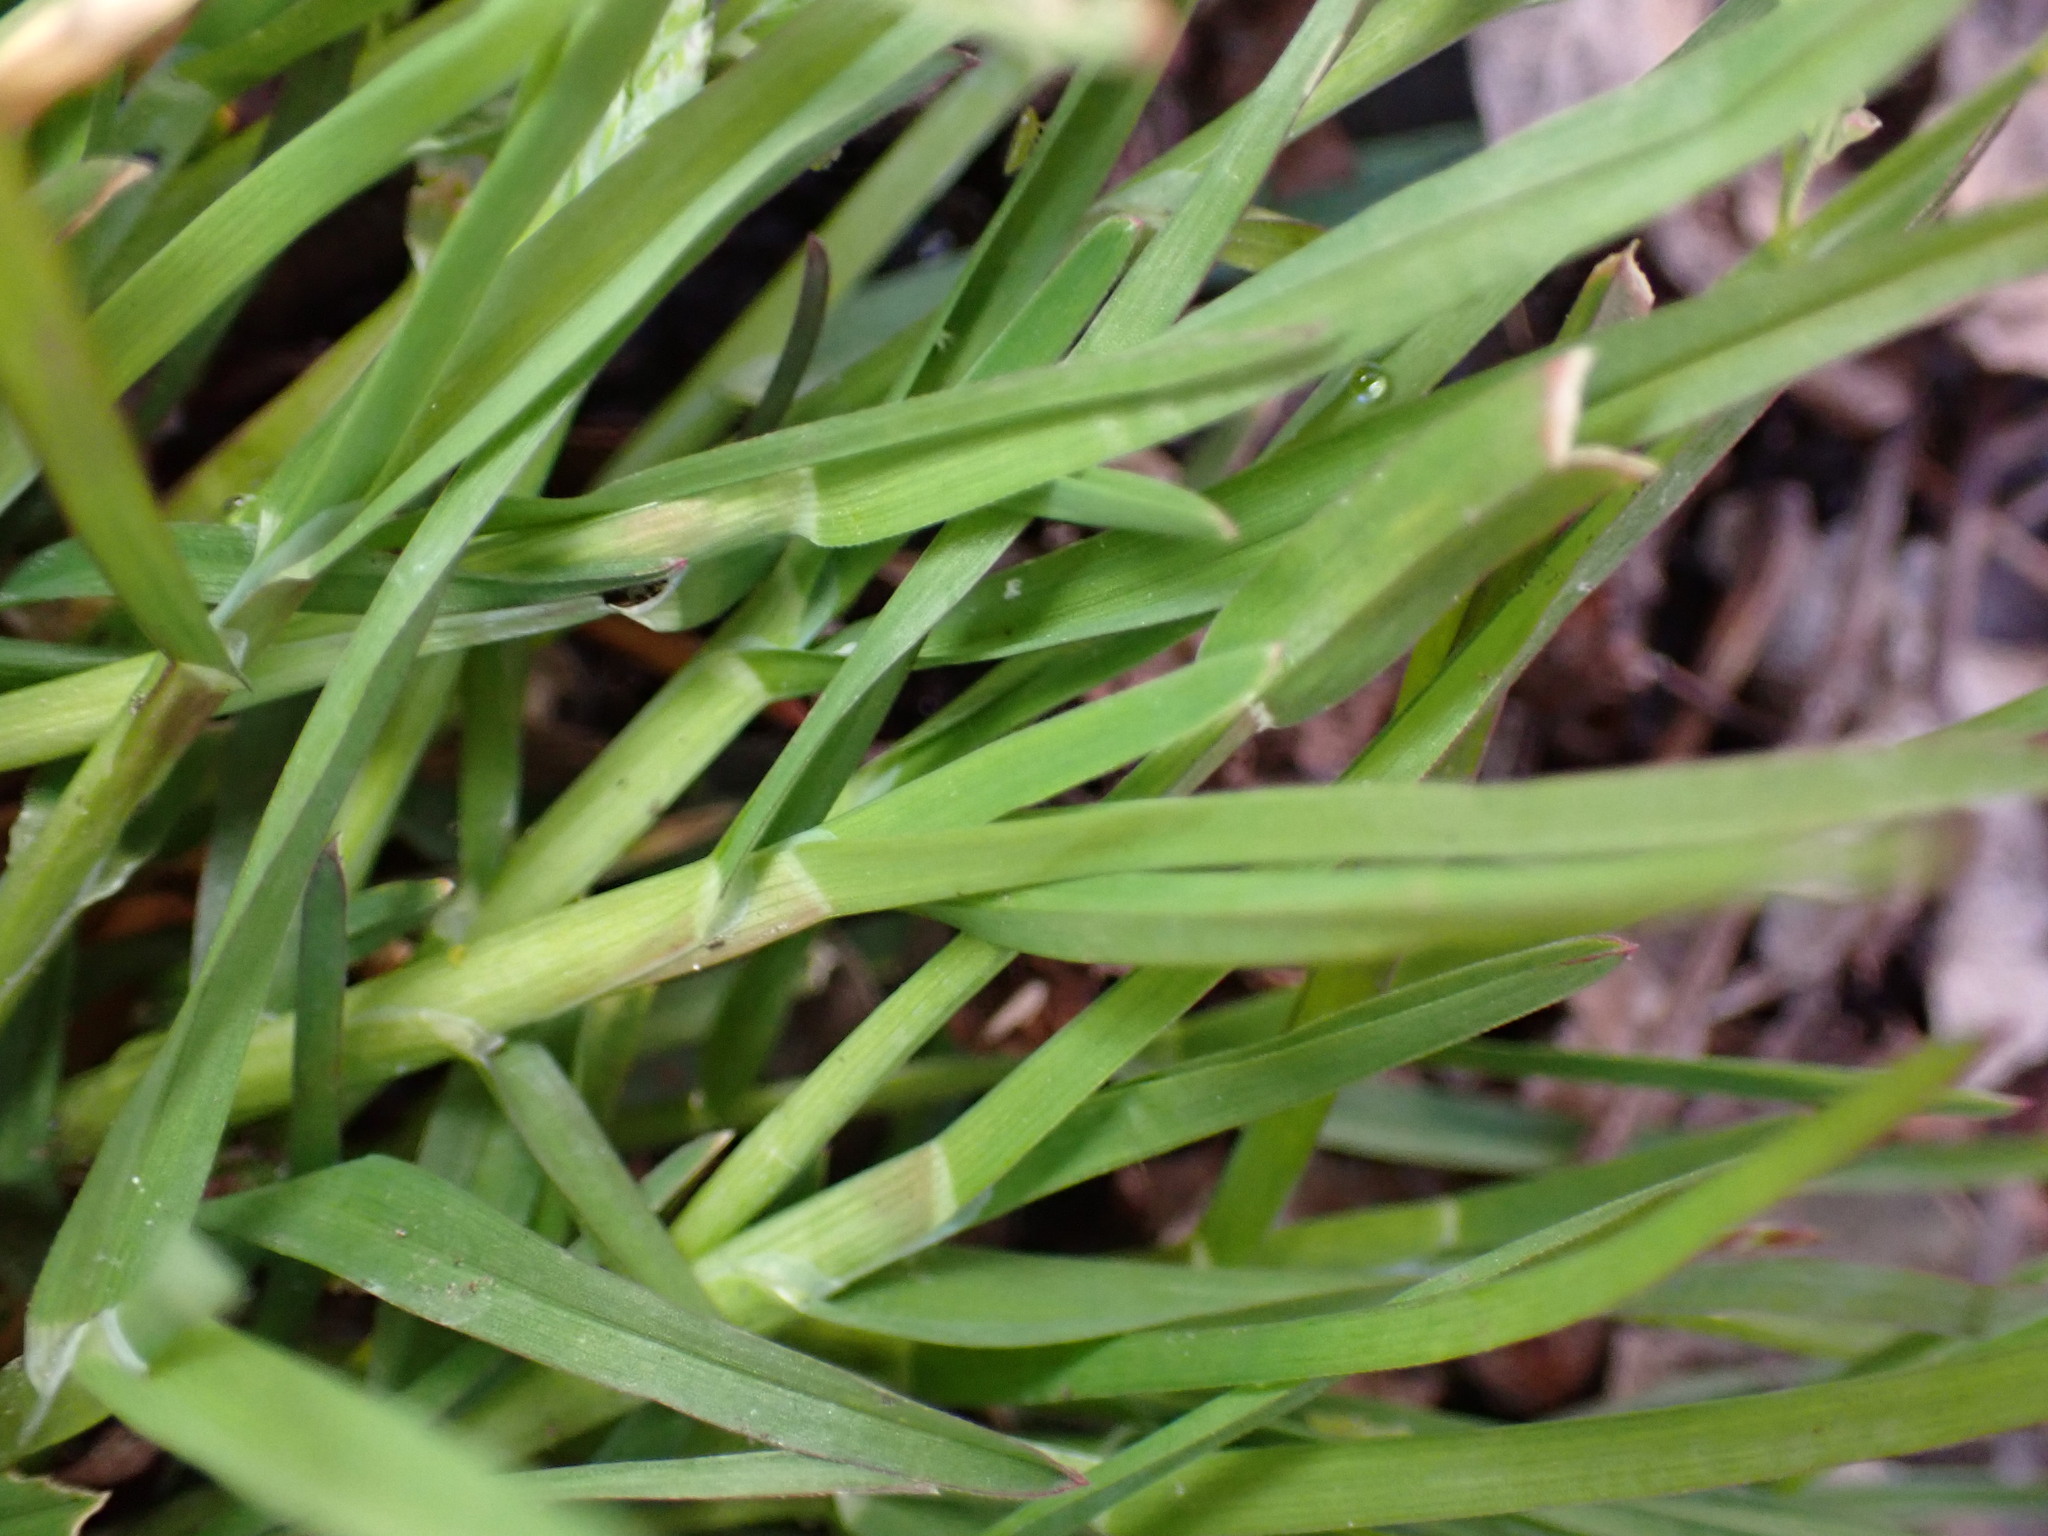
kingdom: Plantae
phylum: Tracheophyta
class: Liliopsida
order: Poales
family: Poaceae
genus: Poa
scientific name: Poa annua
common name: Annual bluegrass
